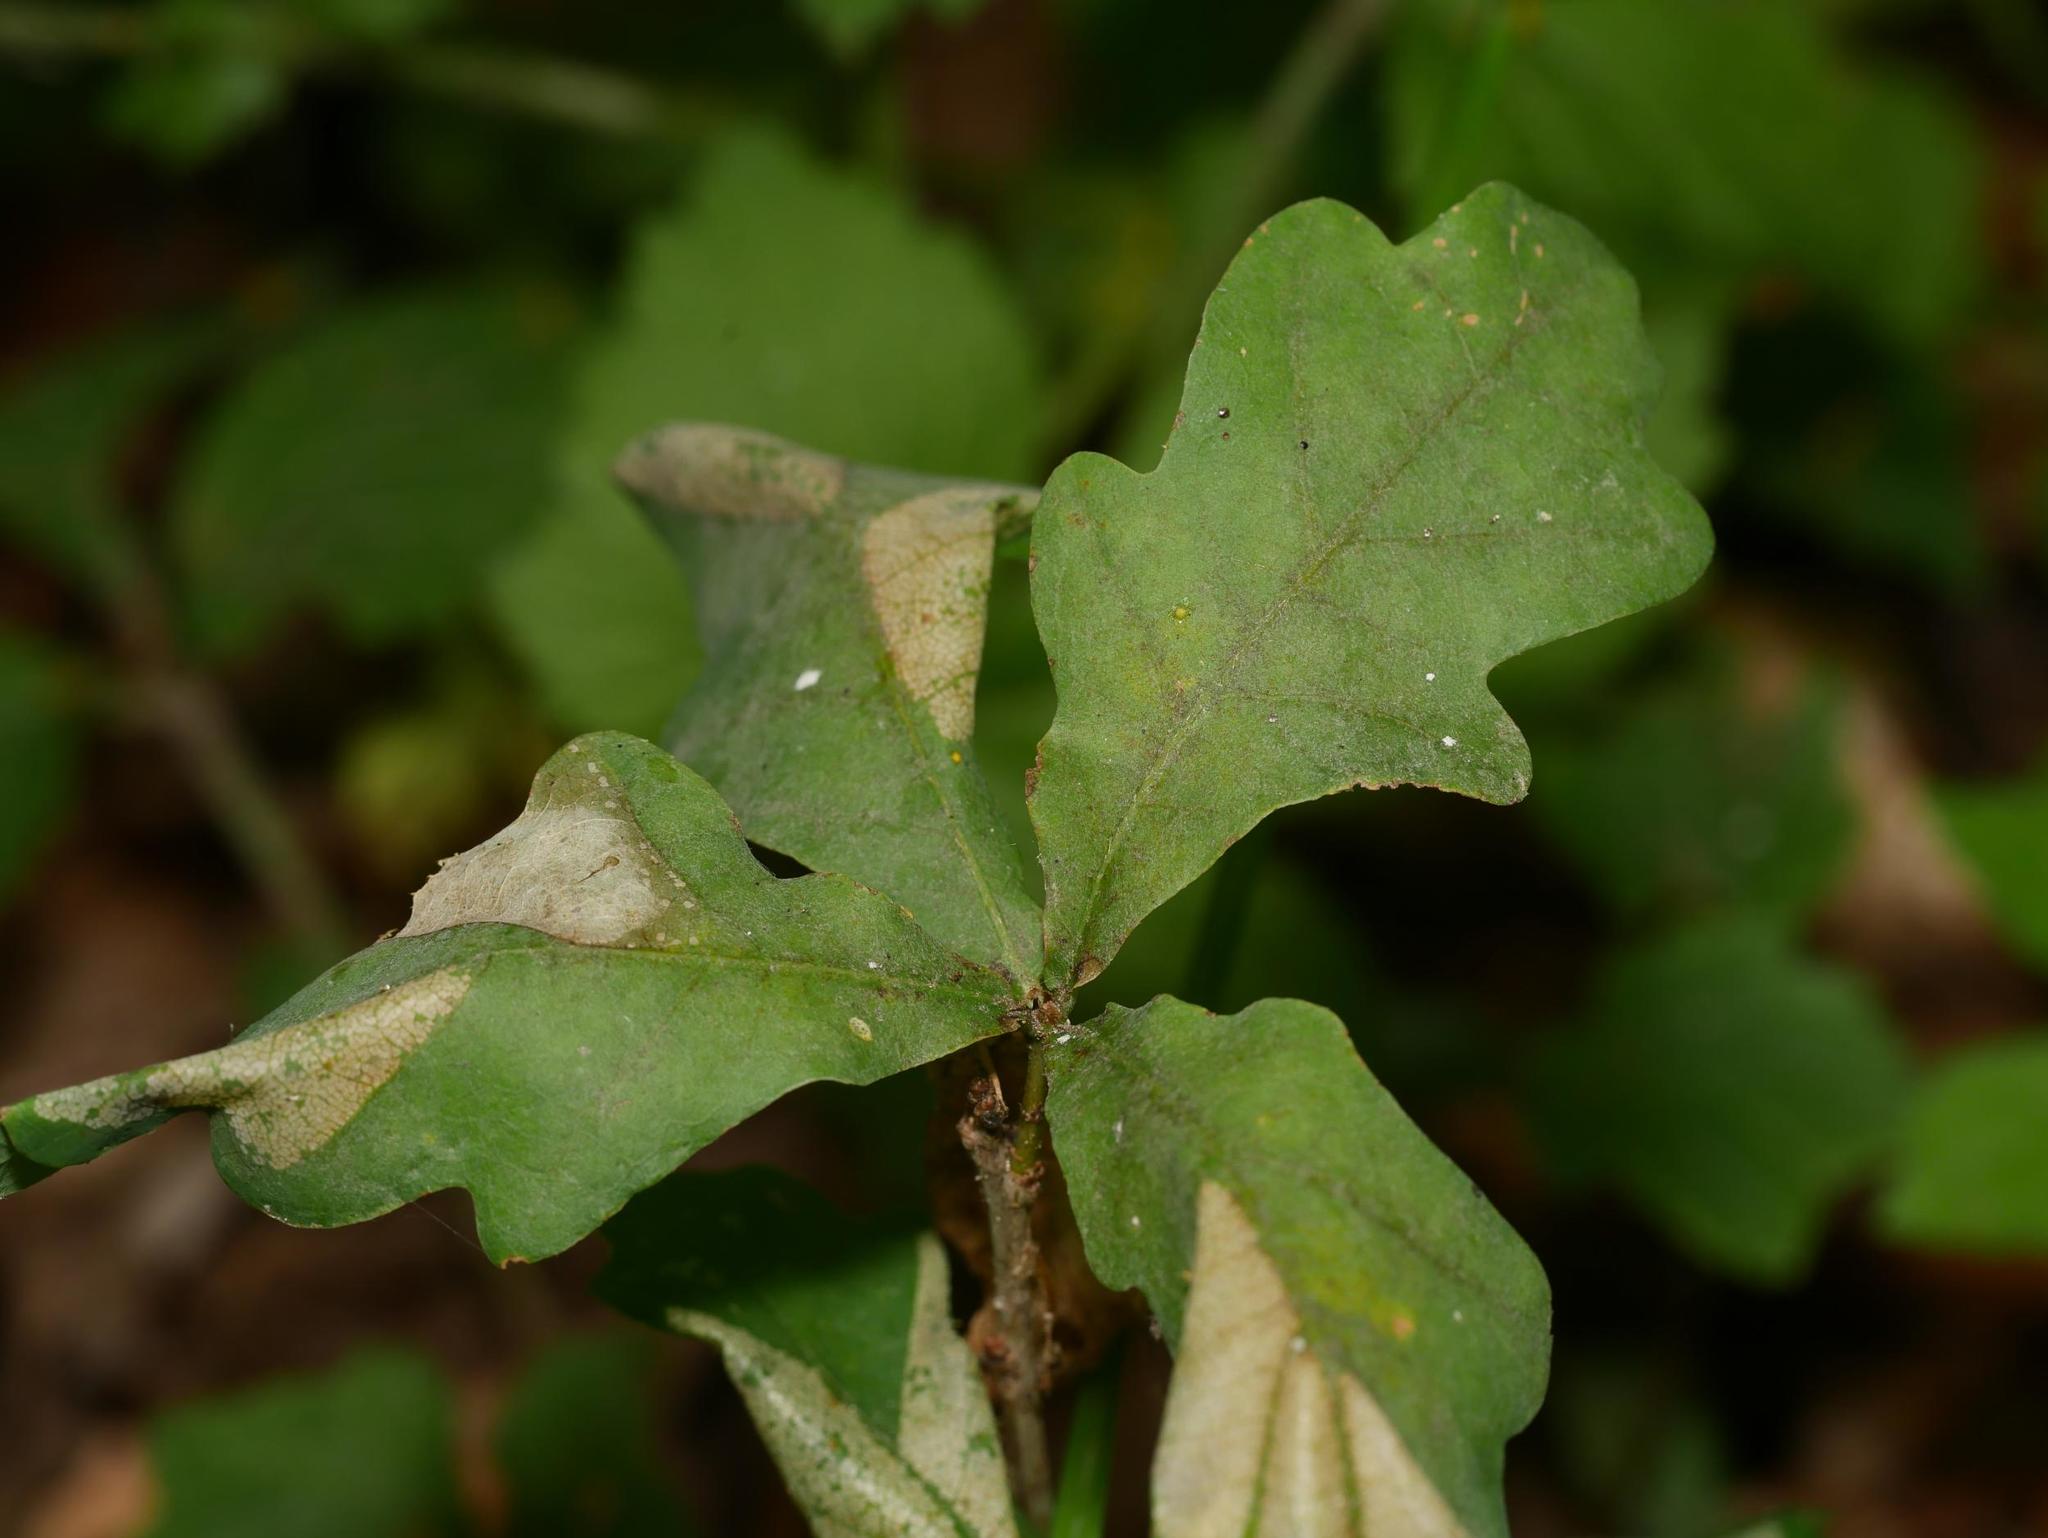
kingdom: Plantae
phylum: Tracheophyta
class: Magnoliopsida
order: Fagales
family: Fagaceae
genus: Quercus
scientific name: Quercus robur
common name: Pedunculate oak
